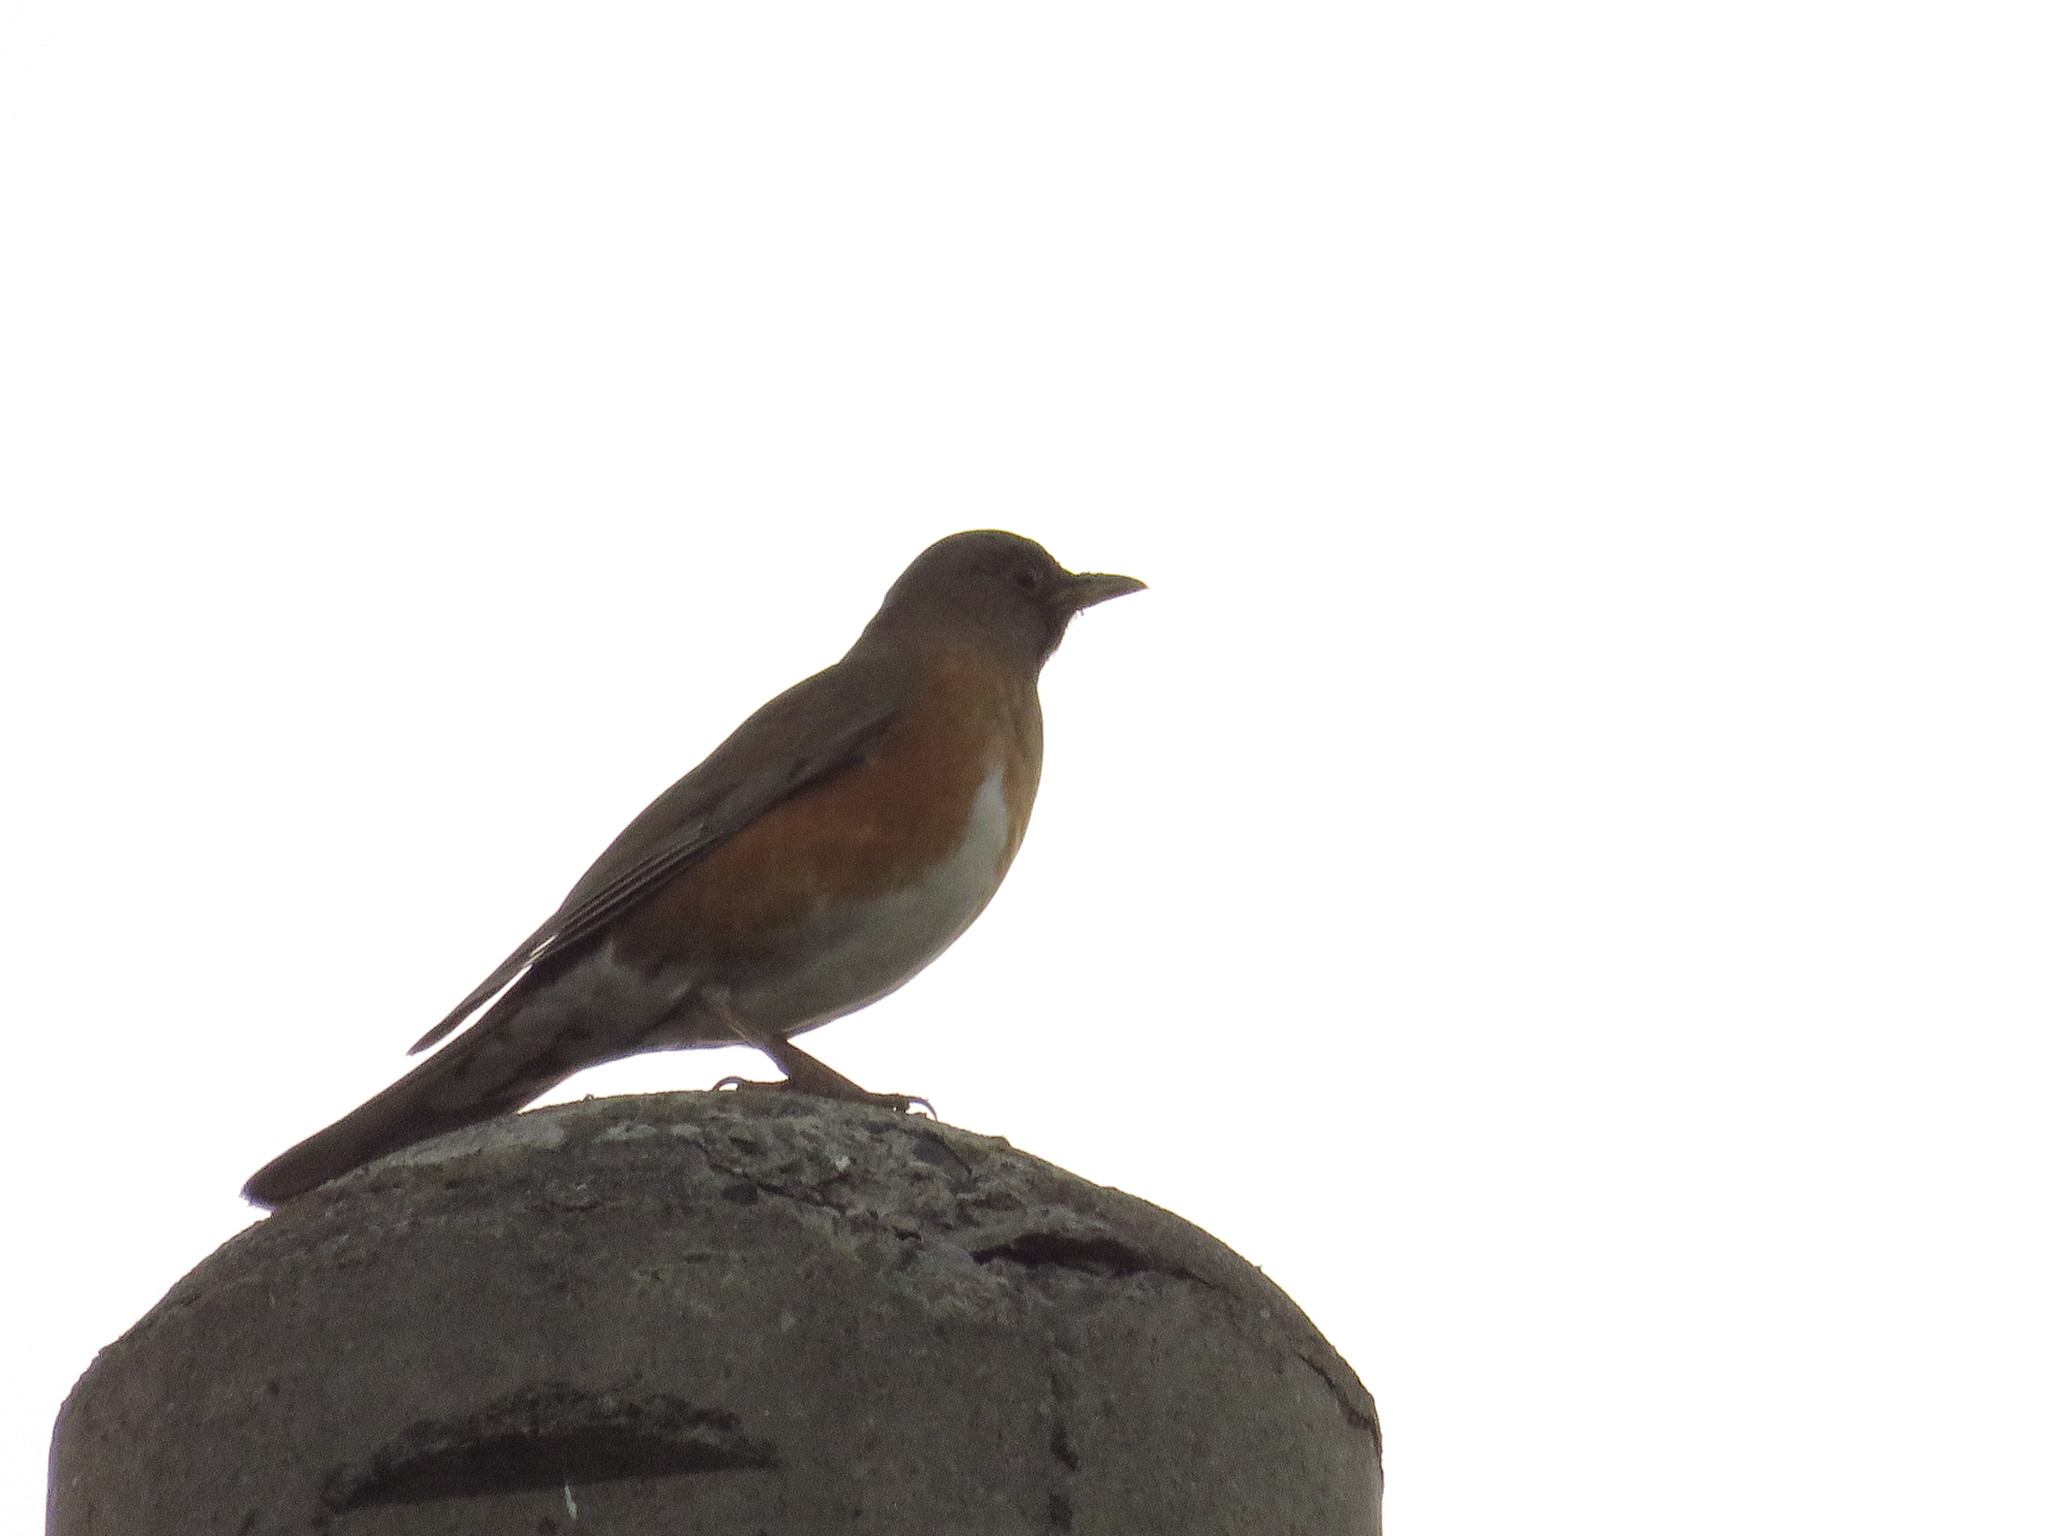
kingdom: Animalia
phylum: Chordata
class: Aves
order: Passeriformes
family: Turdidae
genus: Turdus
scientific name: Turdus chrysolaus
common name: Brown-headed thrush
